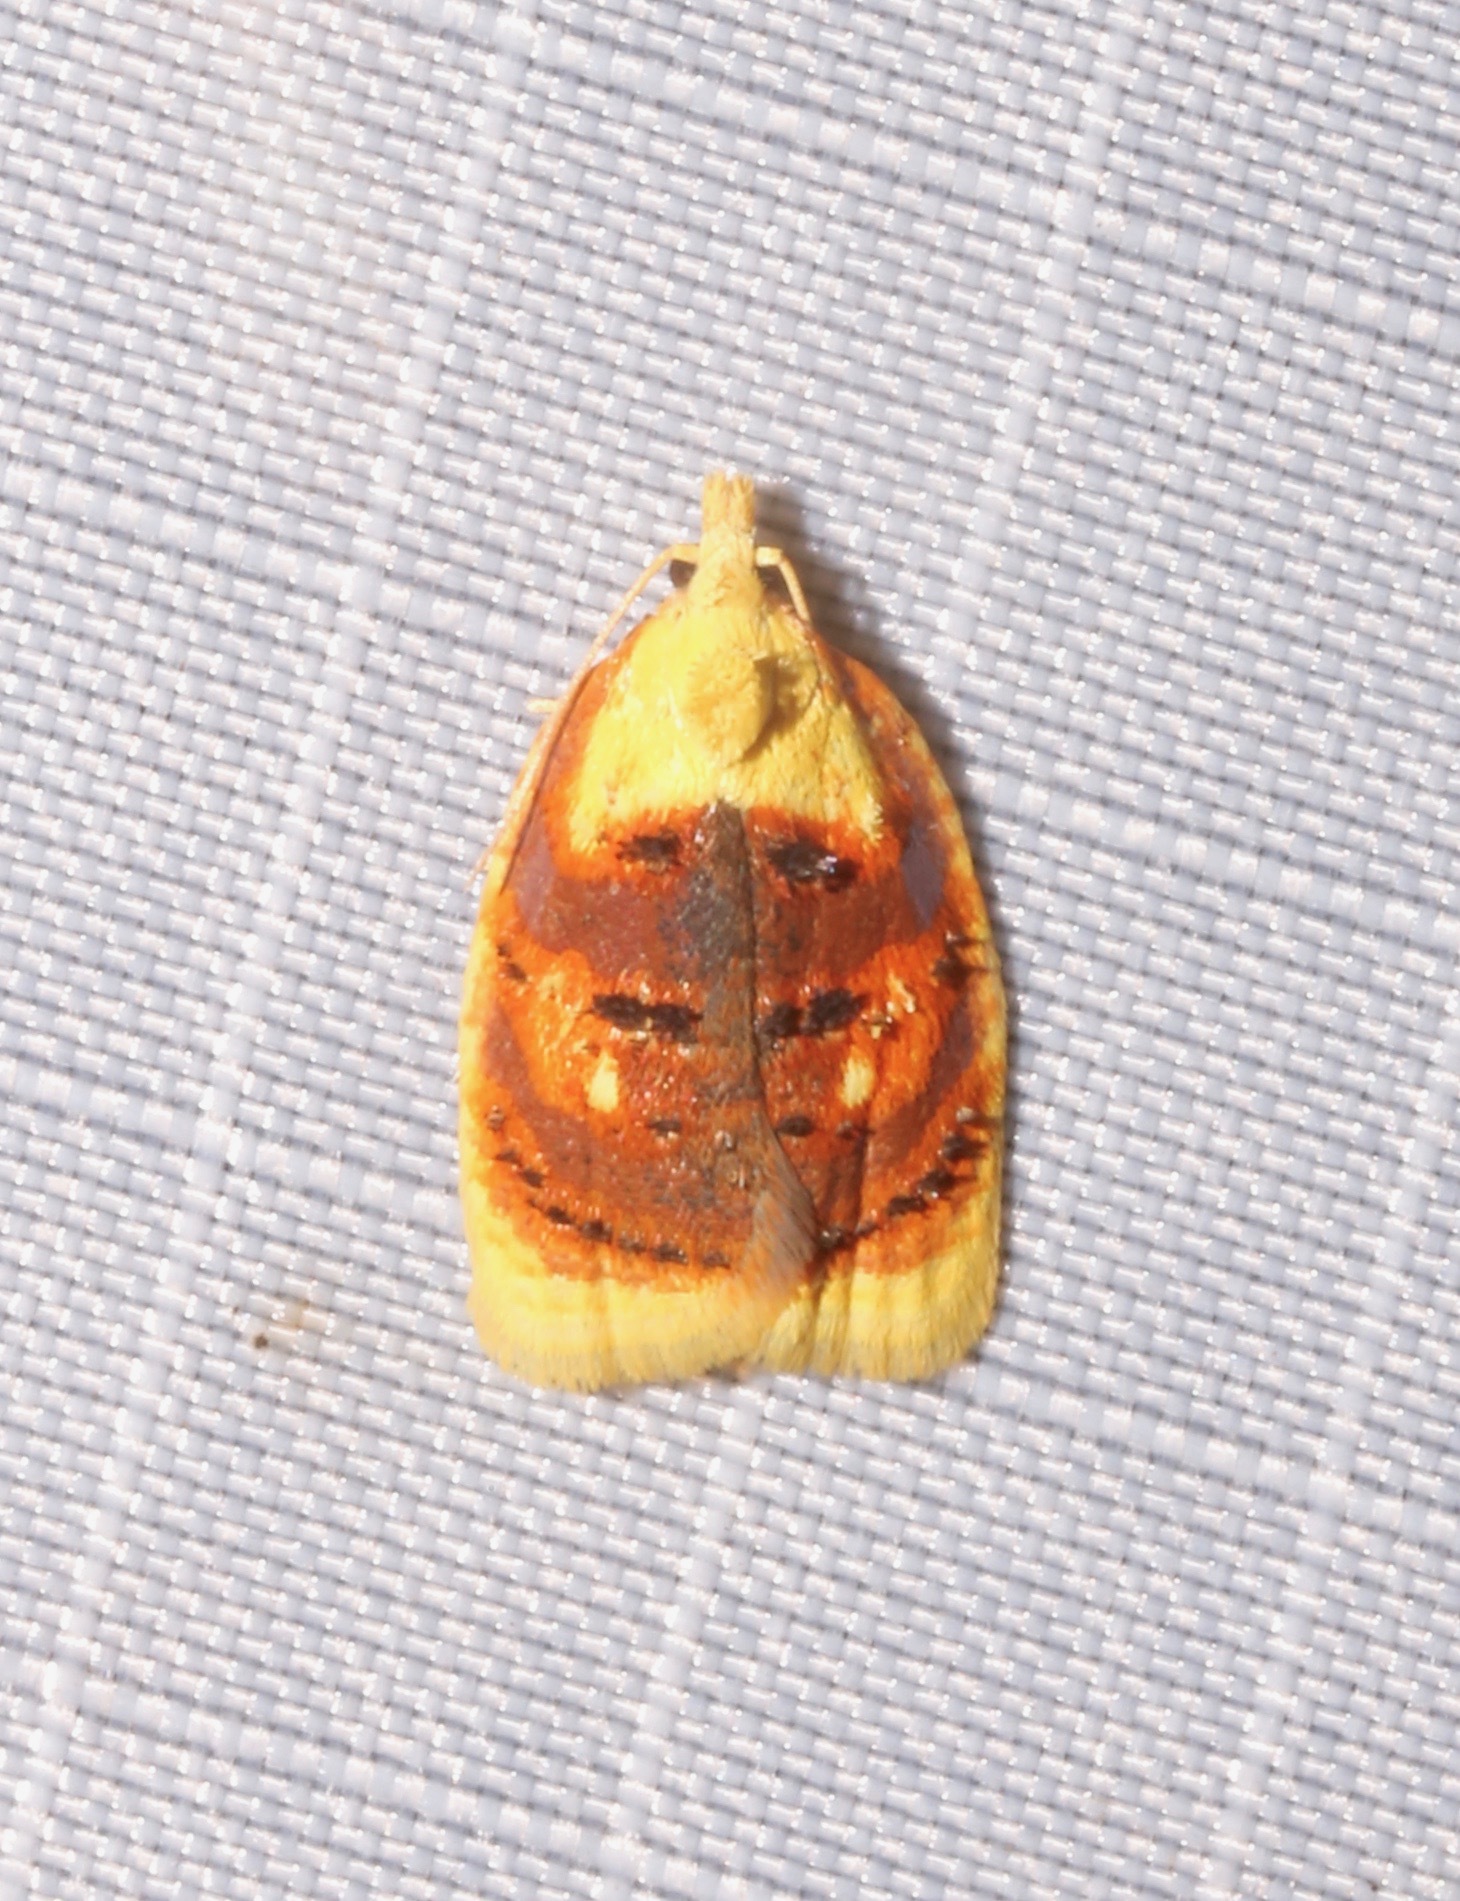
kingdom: Animalia
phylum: Arthropoda
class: Insecta
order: Lepidoptera
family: Tortricidae
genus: Acleris
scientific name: Acleris curvalana
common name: Blueberry leaftier moth
